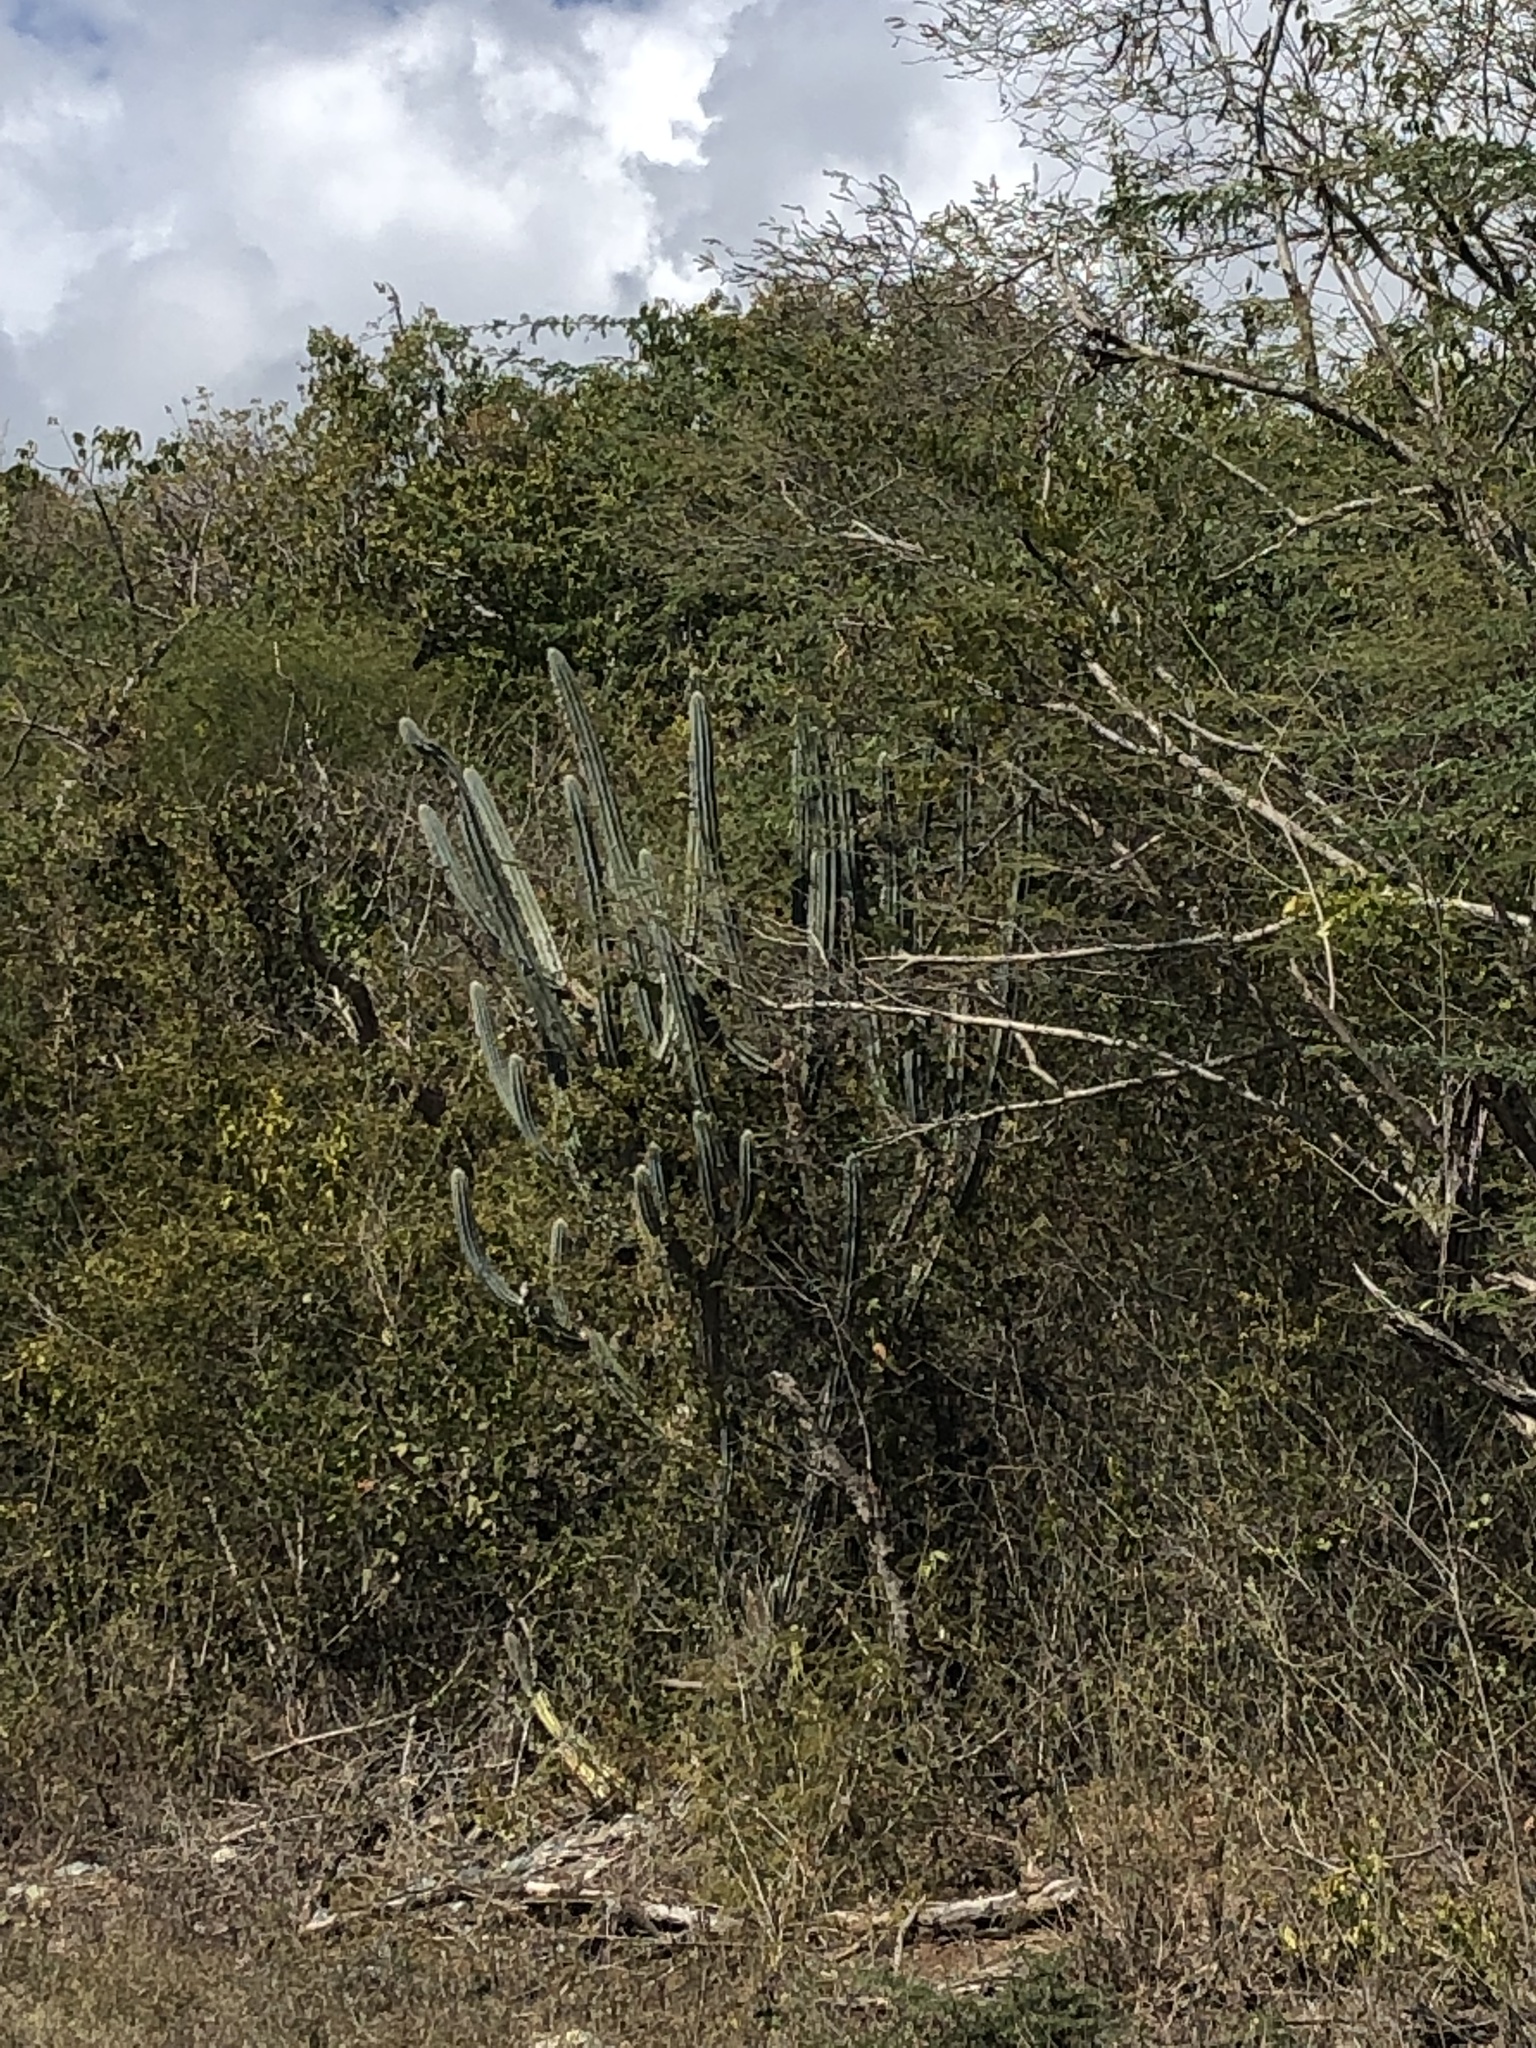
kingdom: Plantae
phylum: Tracheophyta
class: Magnoliopsida
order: Caryophyllales
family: Cactaceae
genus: Pilosocereus
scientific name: Pilosocereus armatus
